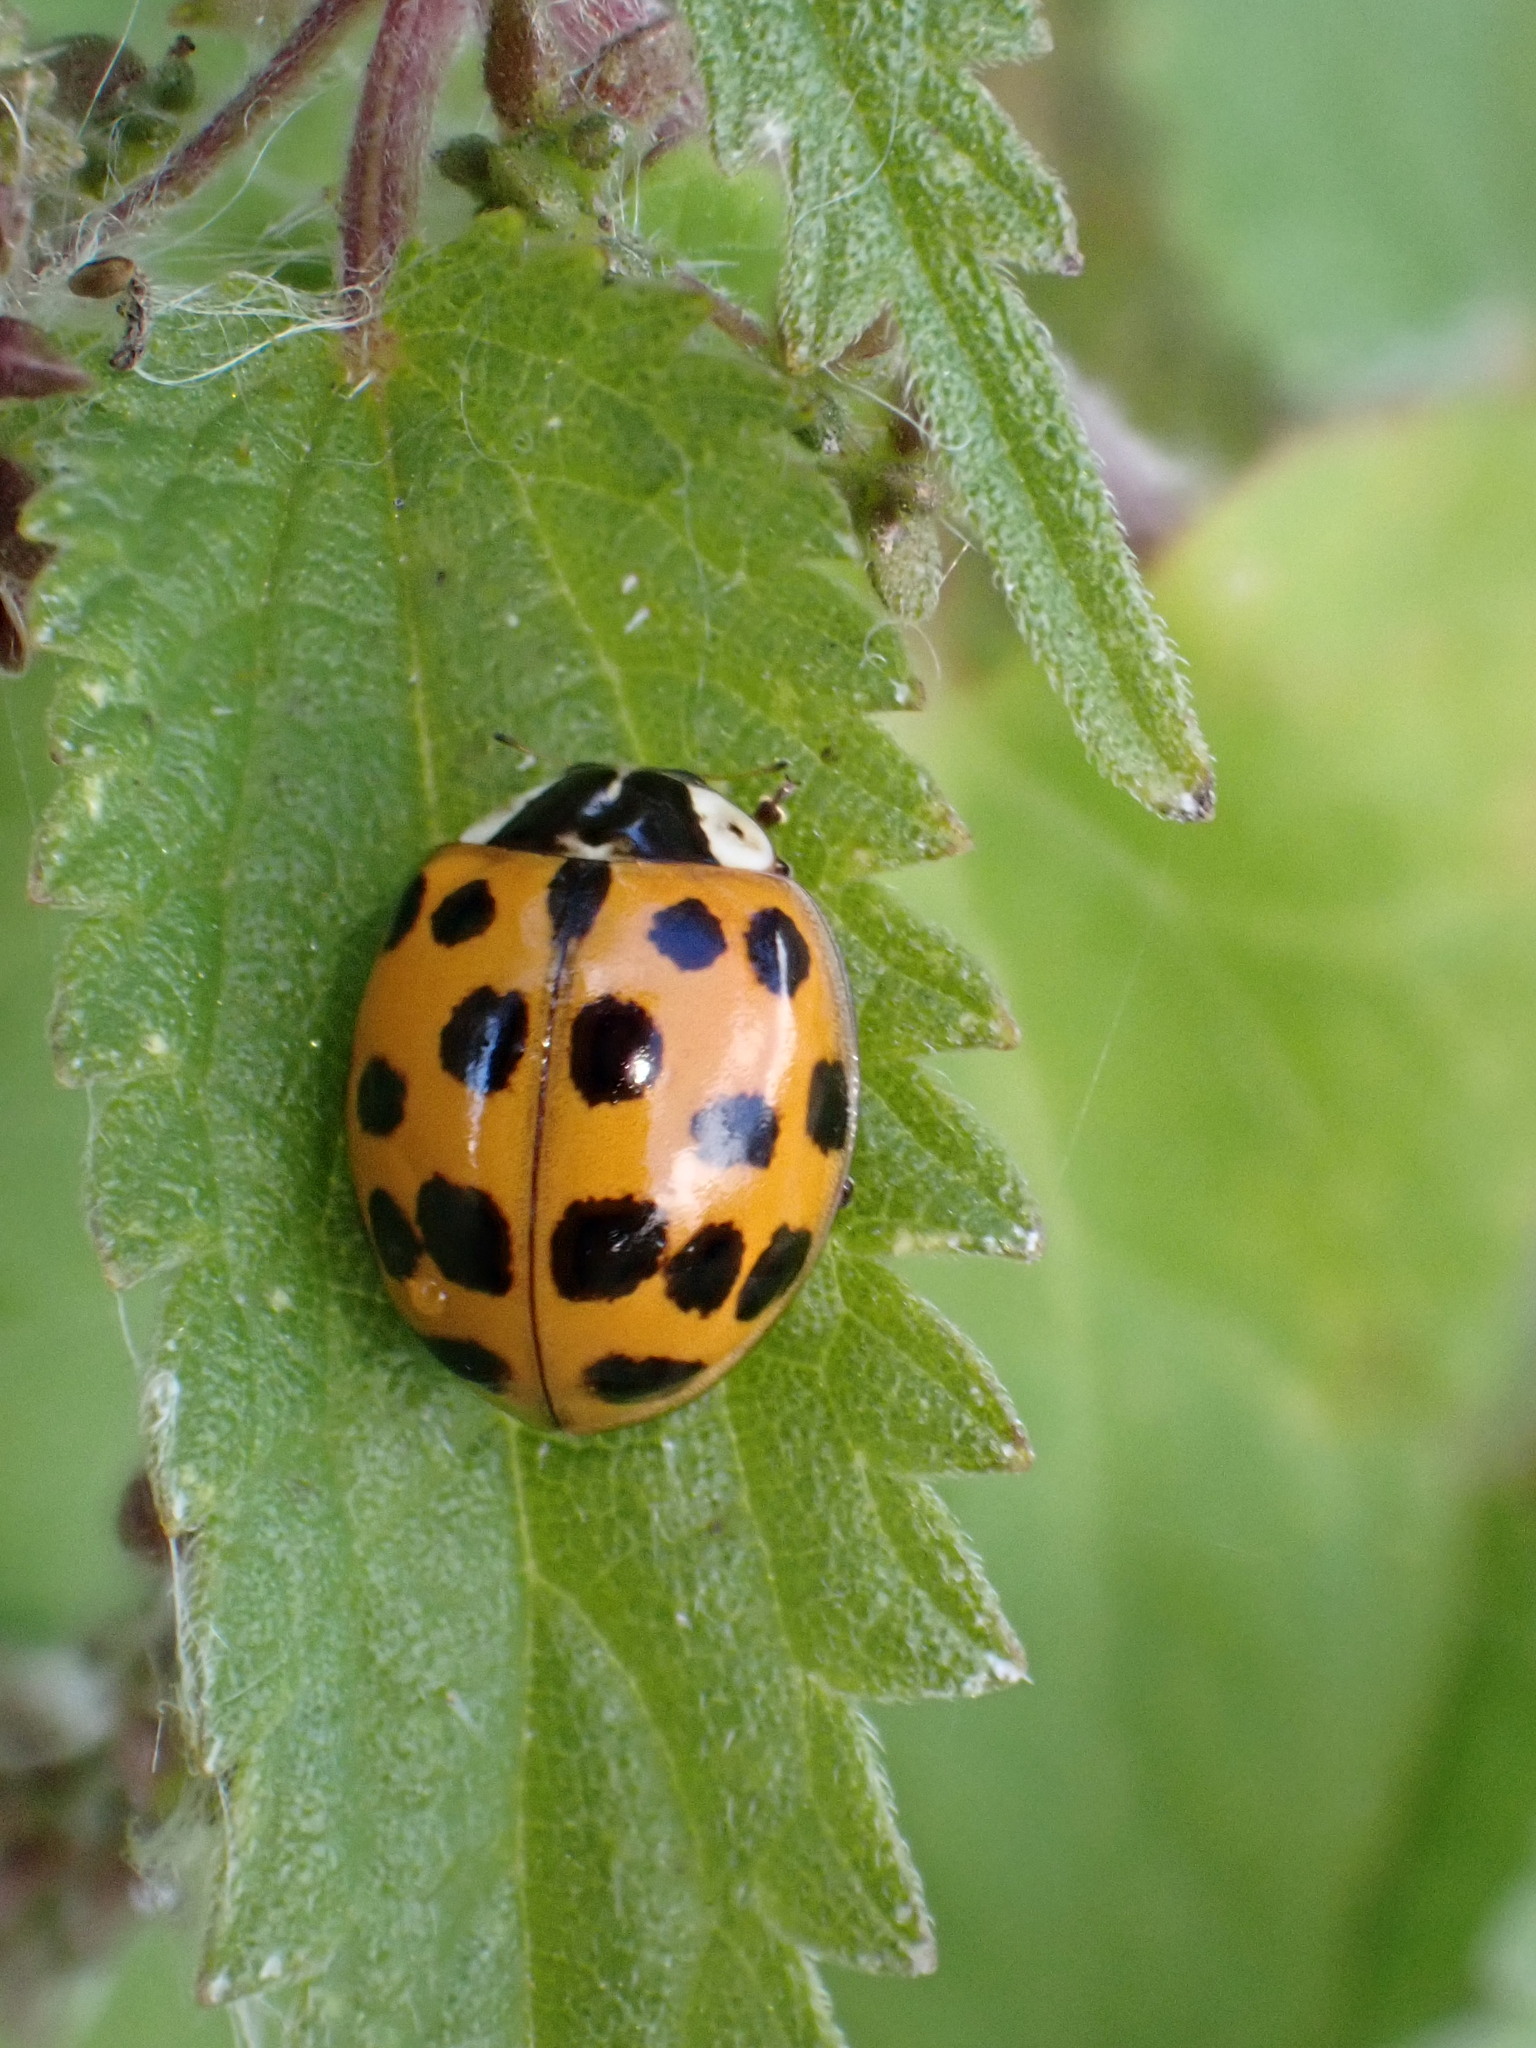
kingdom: Animalia
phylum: Arthropoda
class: Insecta
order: Coleoptera
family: Coccinellidae
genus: Harmonia
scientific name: Harmonia axyridis
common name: Harlequin ladybird
